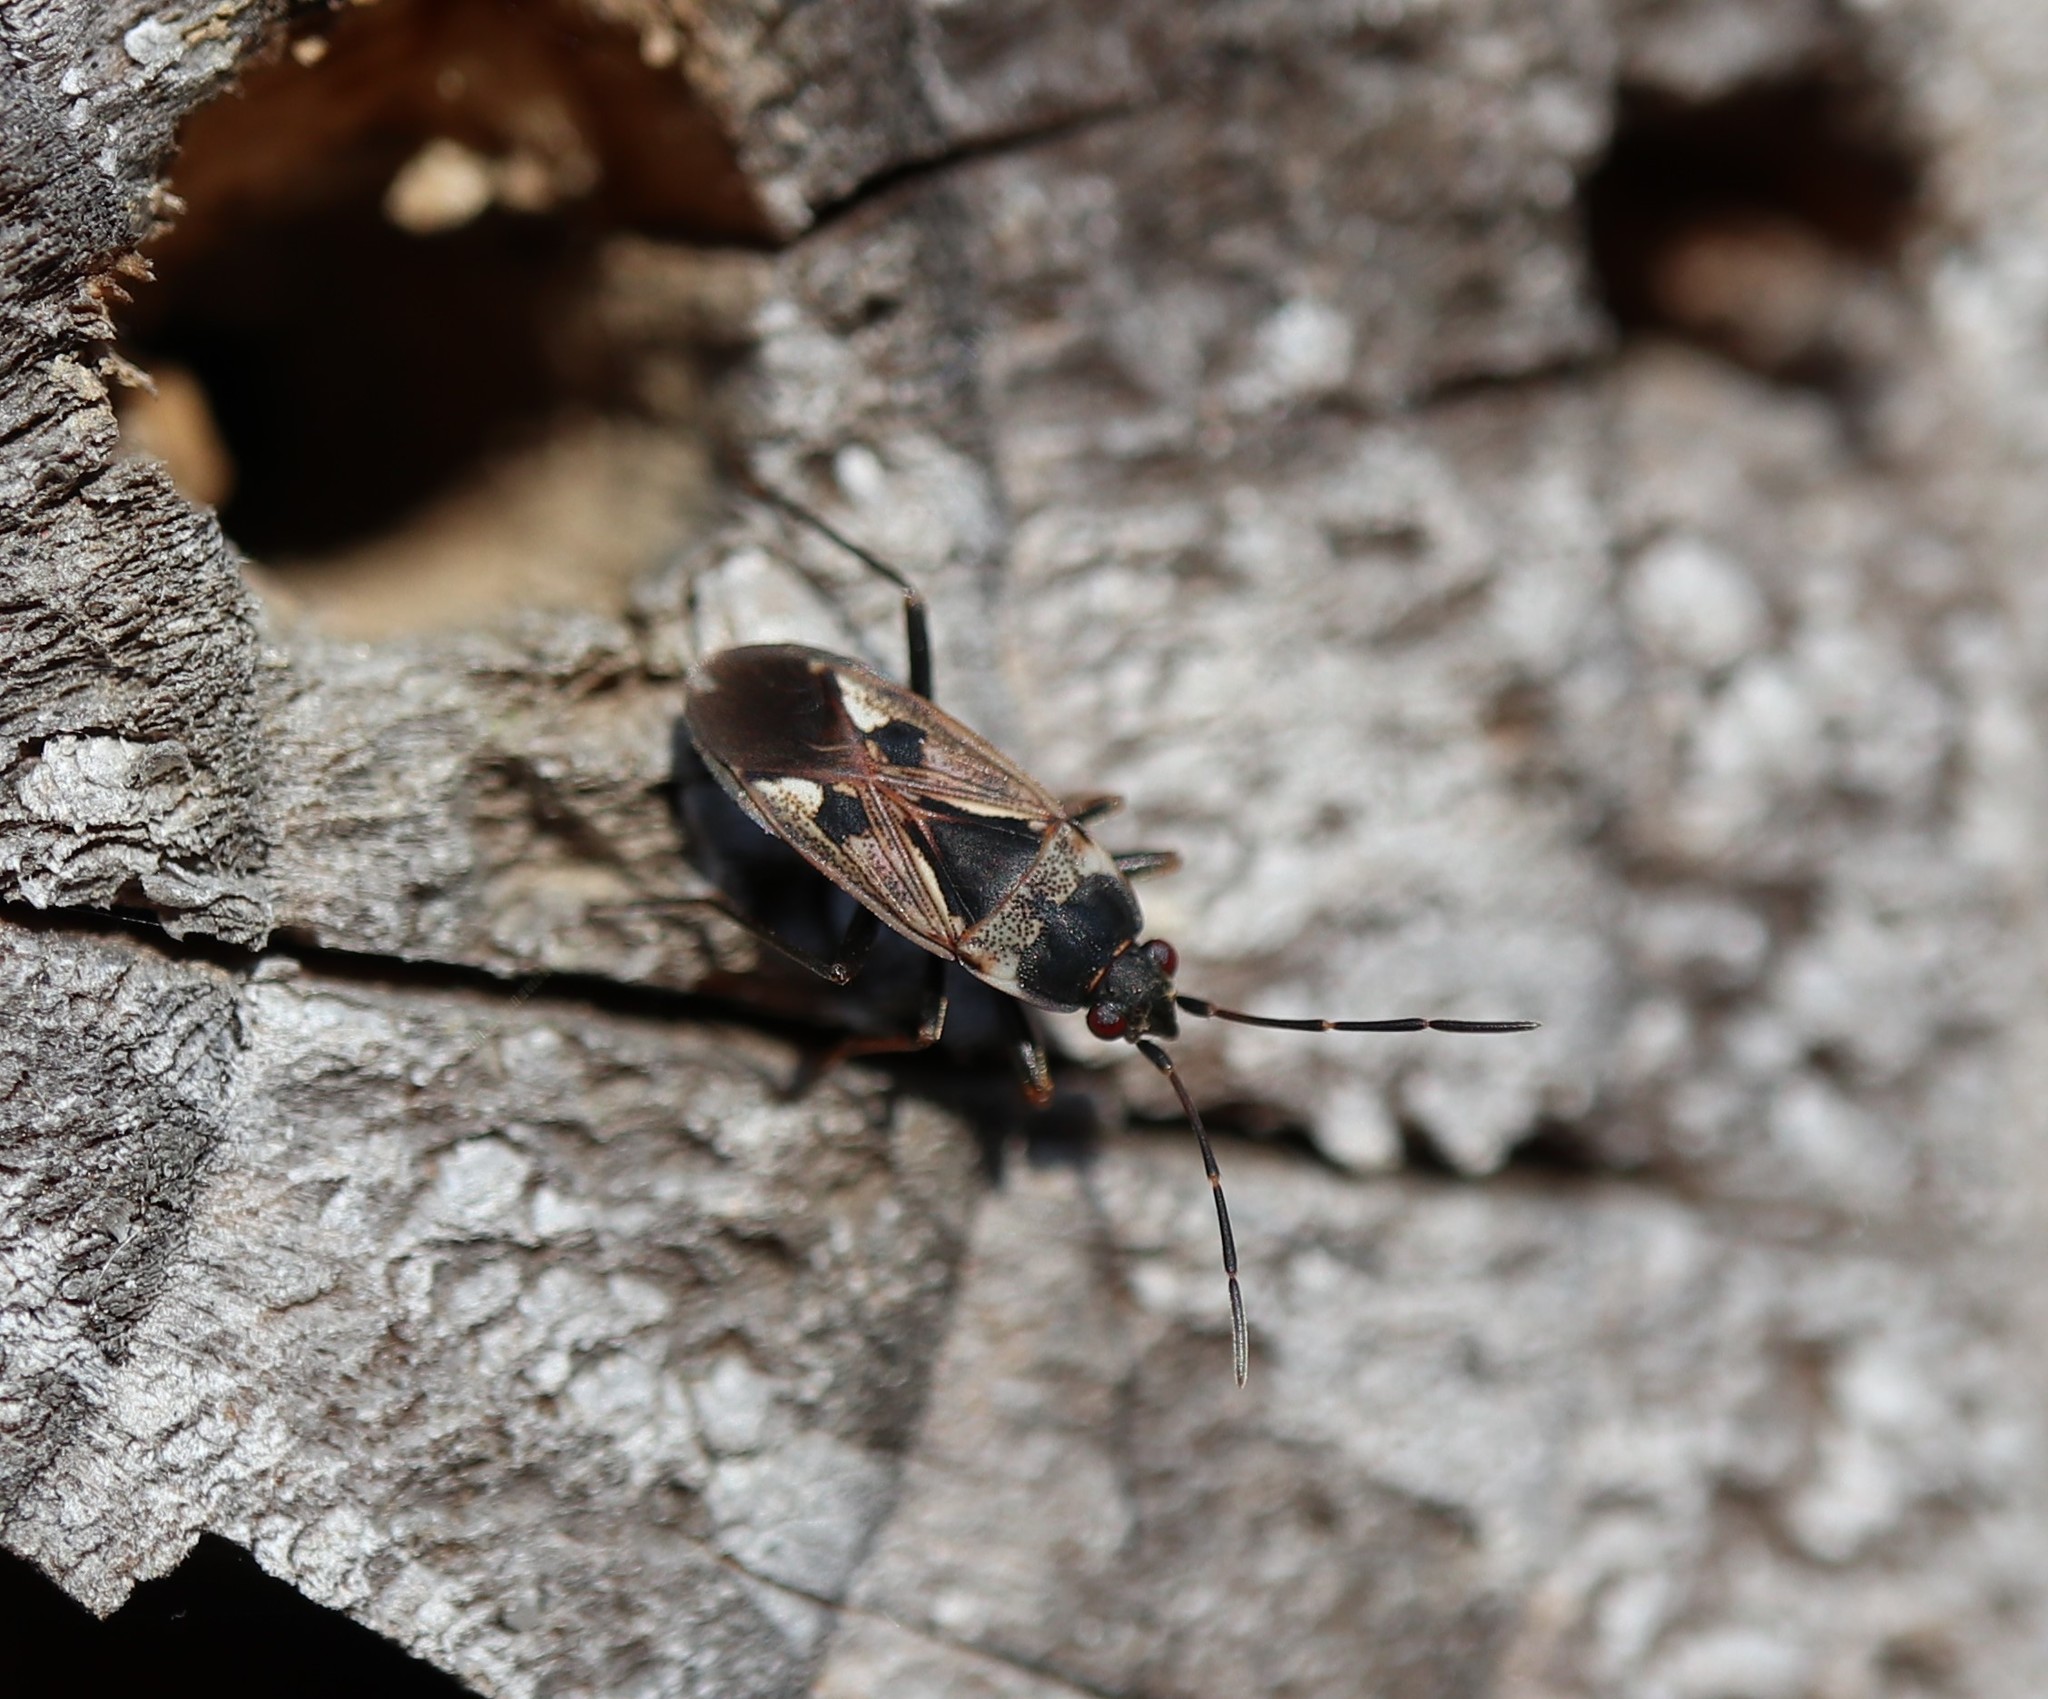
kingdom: Animalia
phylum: Arthropoda
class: Insecta
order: Hemiptera
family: Rhyparochromidae
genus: Rhyparochromus
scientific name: Rhyparochromus vulgaris
